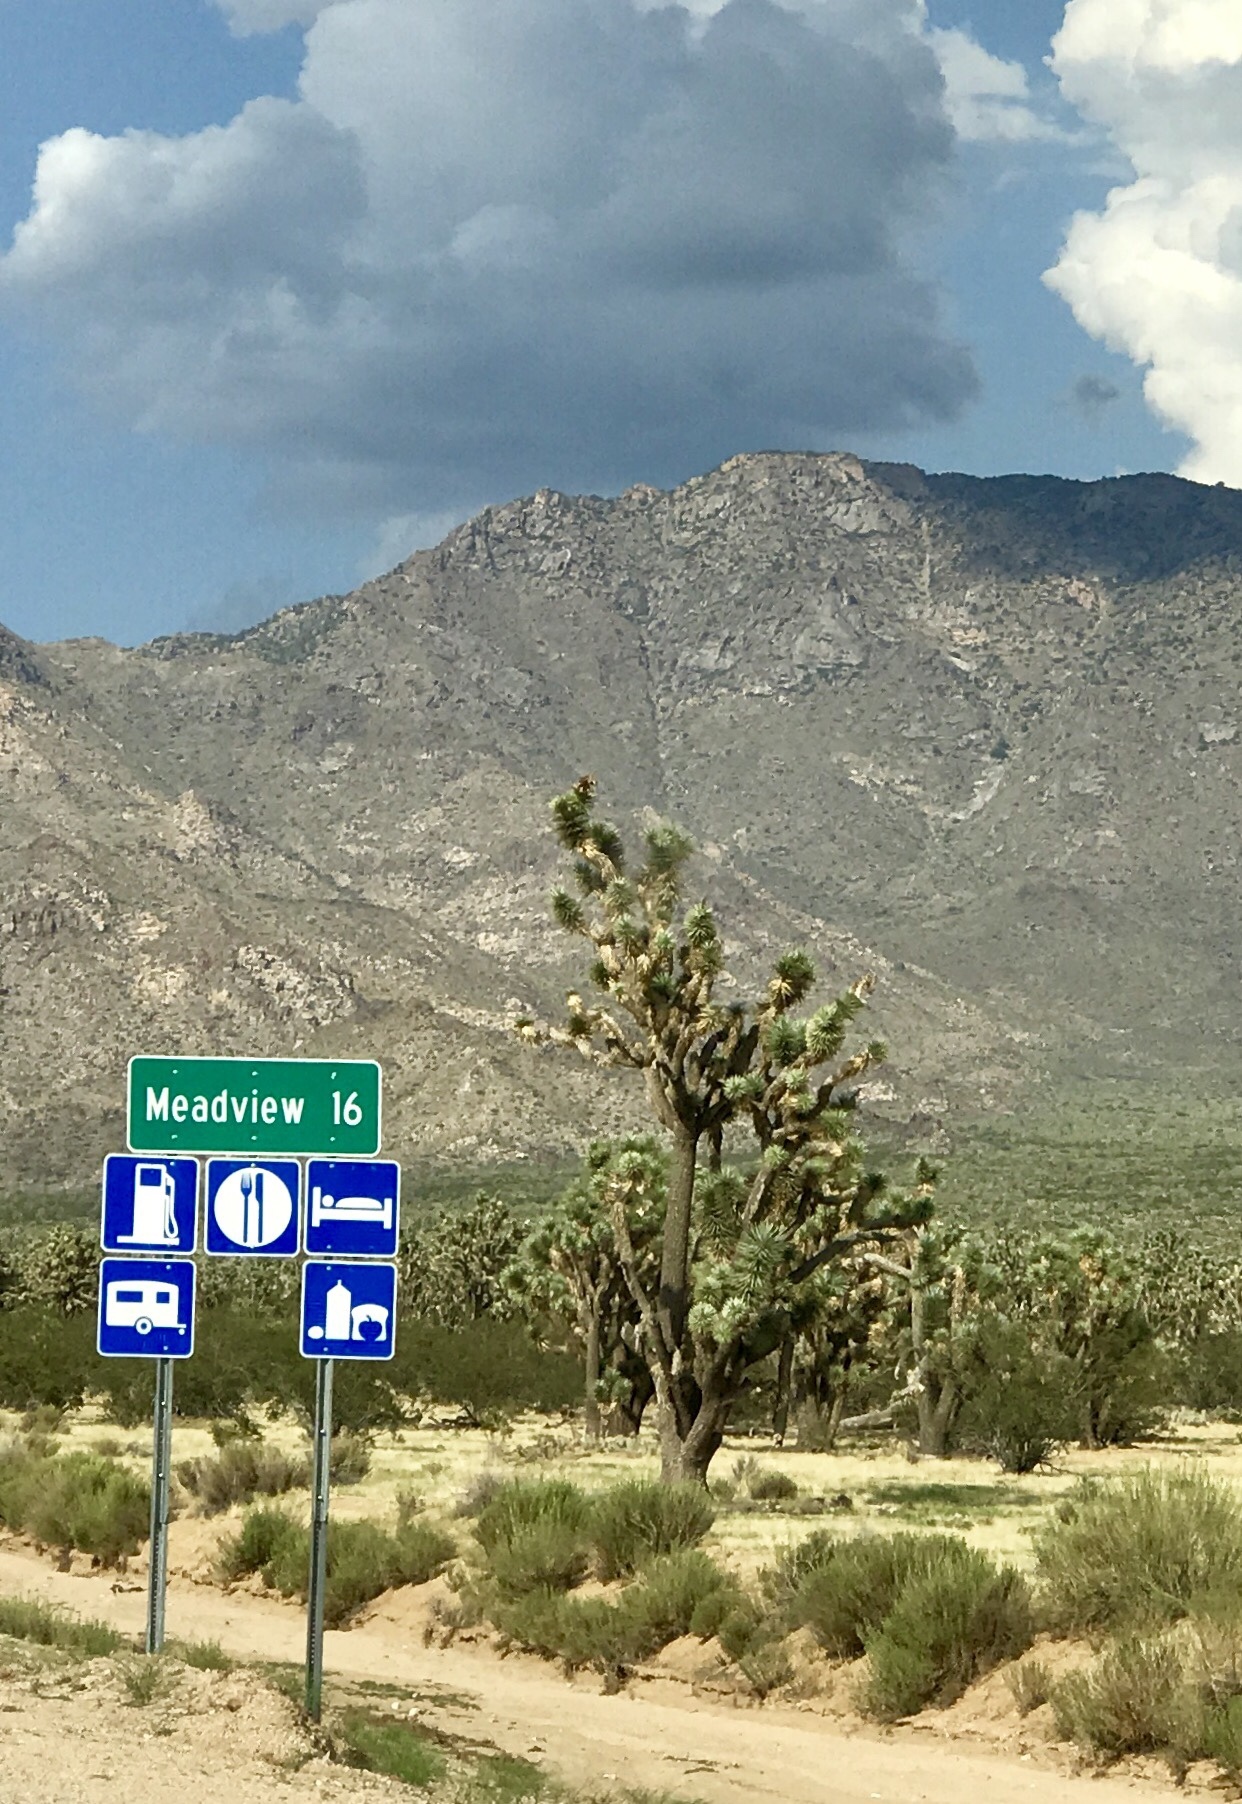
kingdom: Plantae
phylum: Tracheophyta
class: Liliopsida
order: Asparagales
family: Asparagaceae
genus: Yucca
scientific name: Yucca brevifolia
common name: Joshua tree
